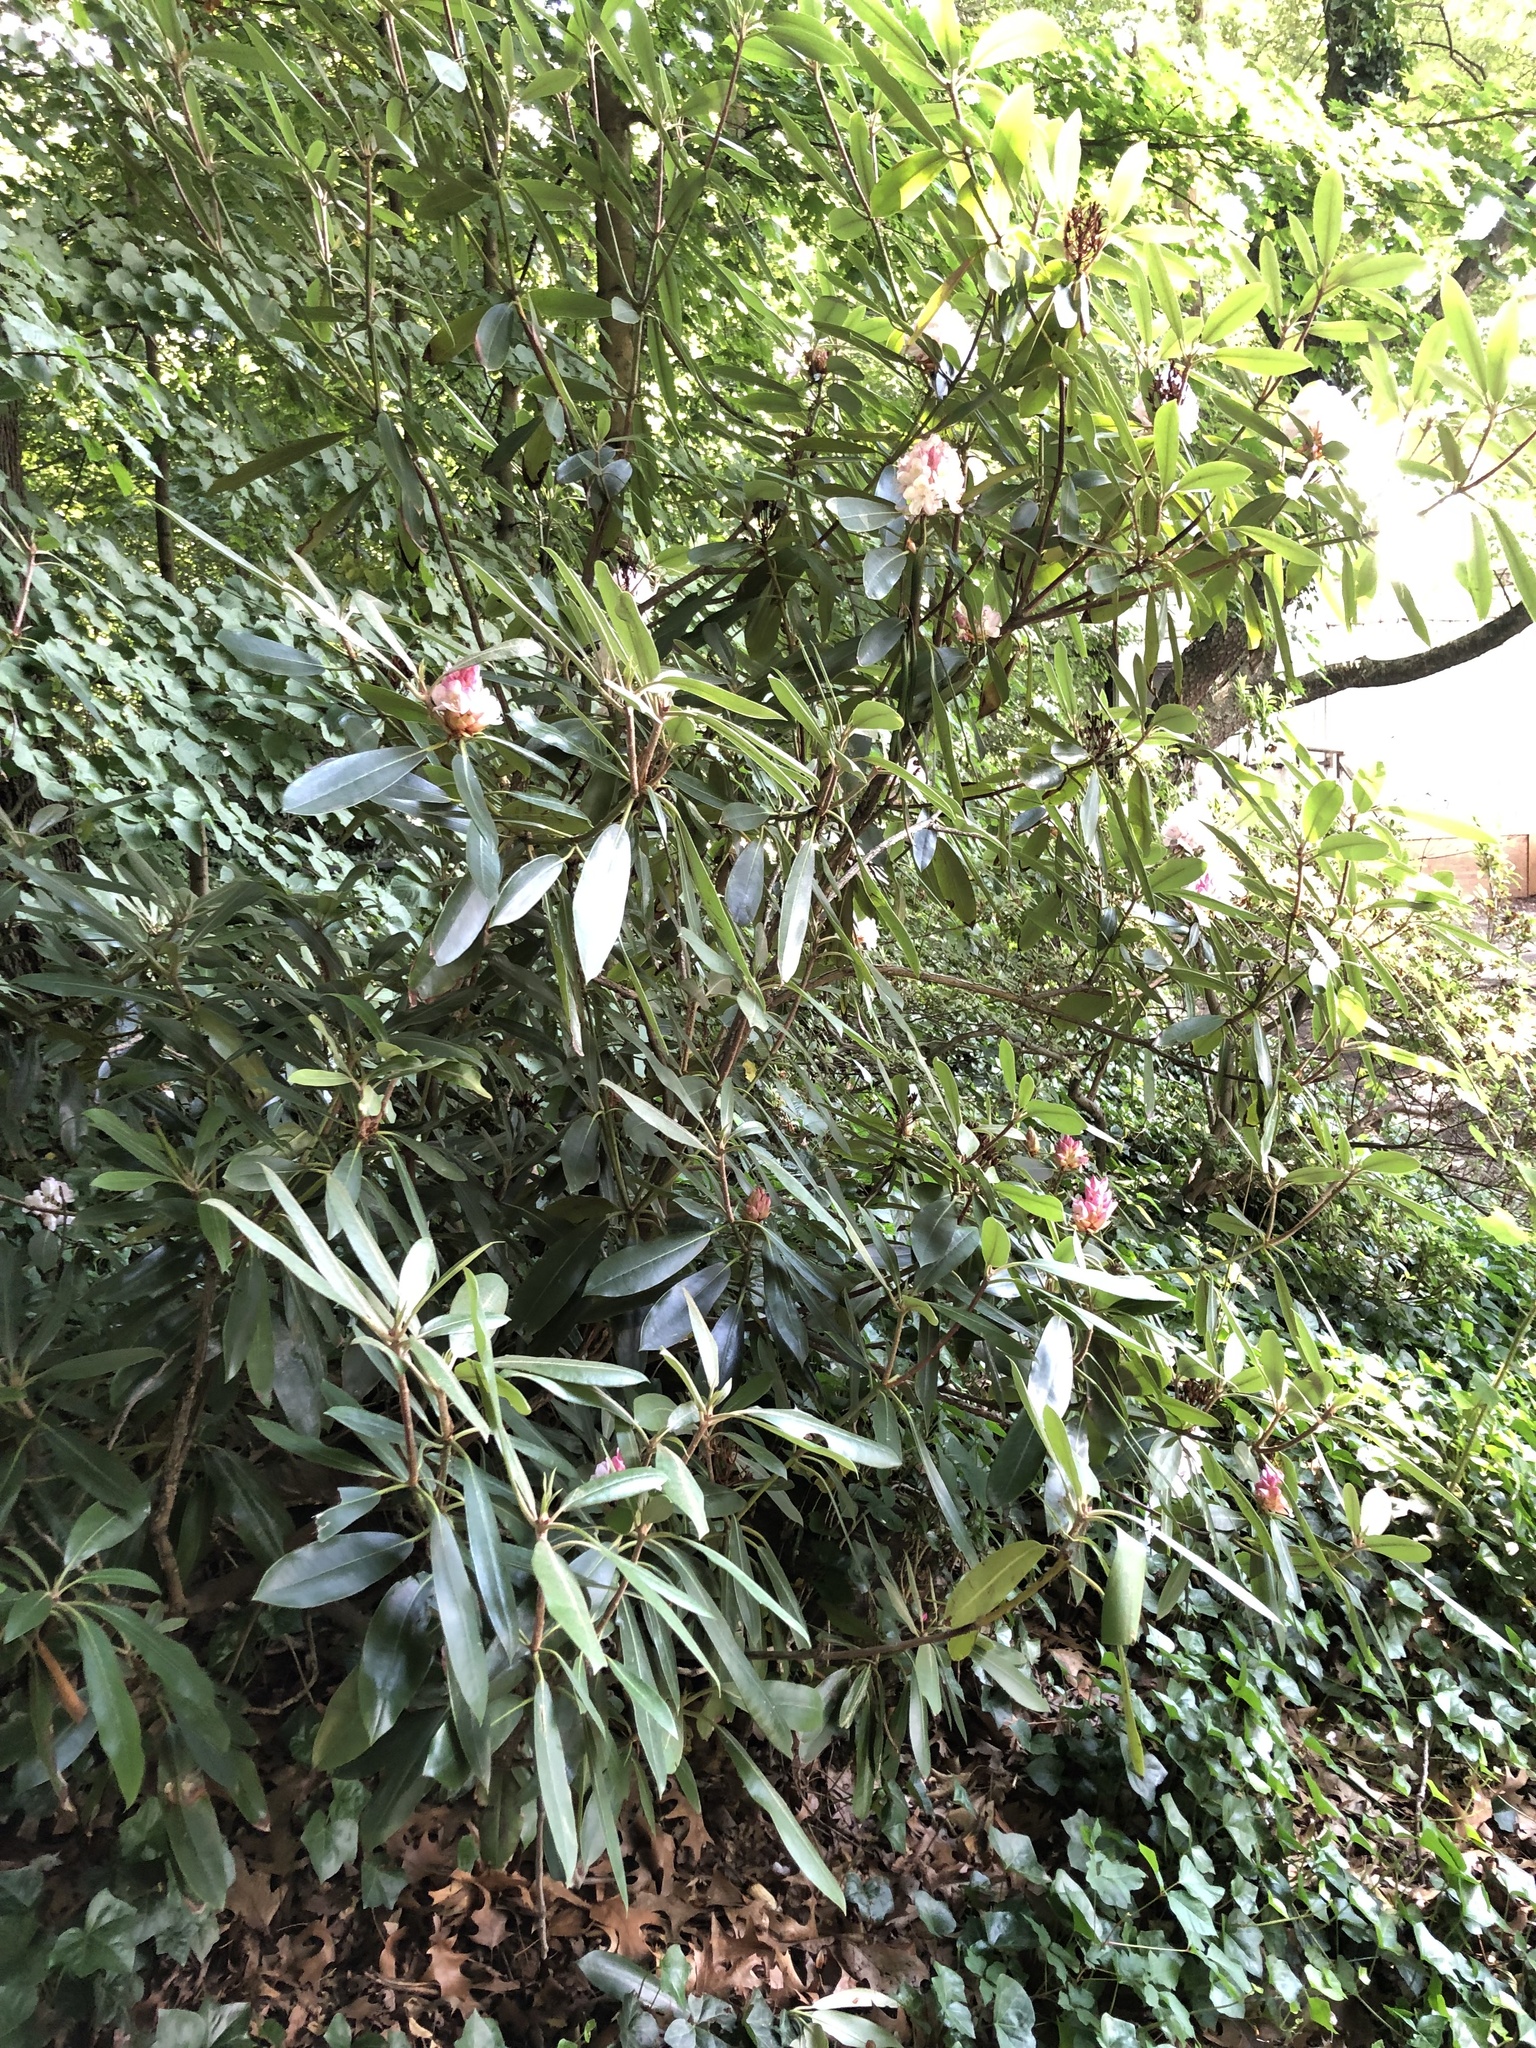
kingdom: Plantae
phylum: Tracheophyta
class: Magnoliopsida
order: Ericales
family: Ericaceae
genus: Rhododendron
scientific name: Rhododendron maximum
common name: Great rhododendron
